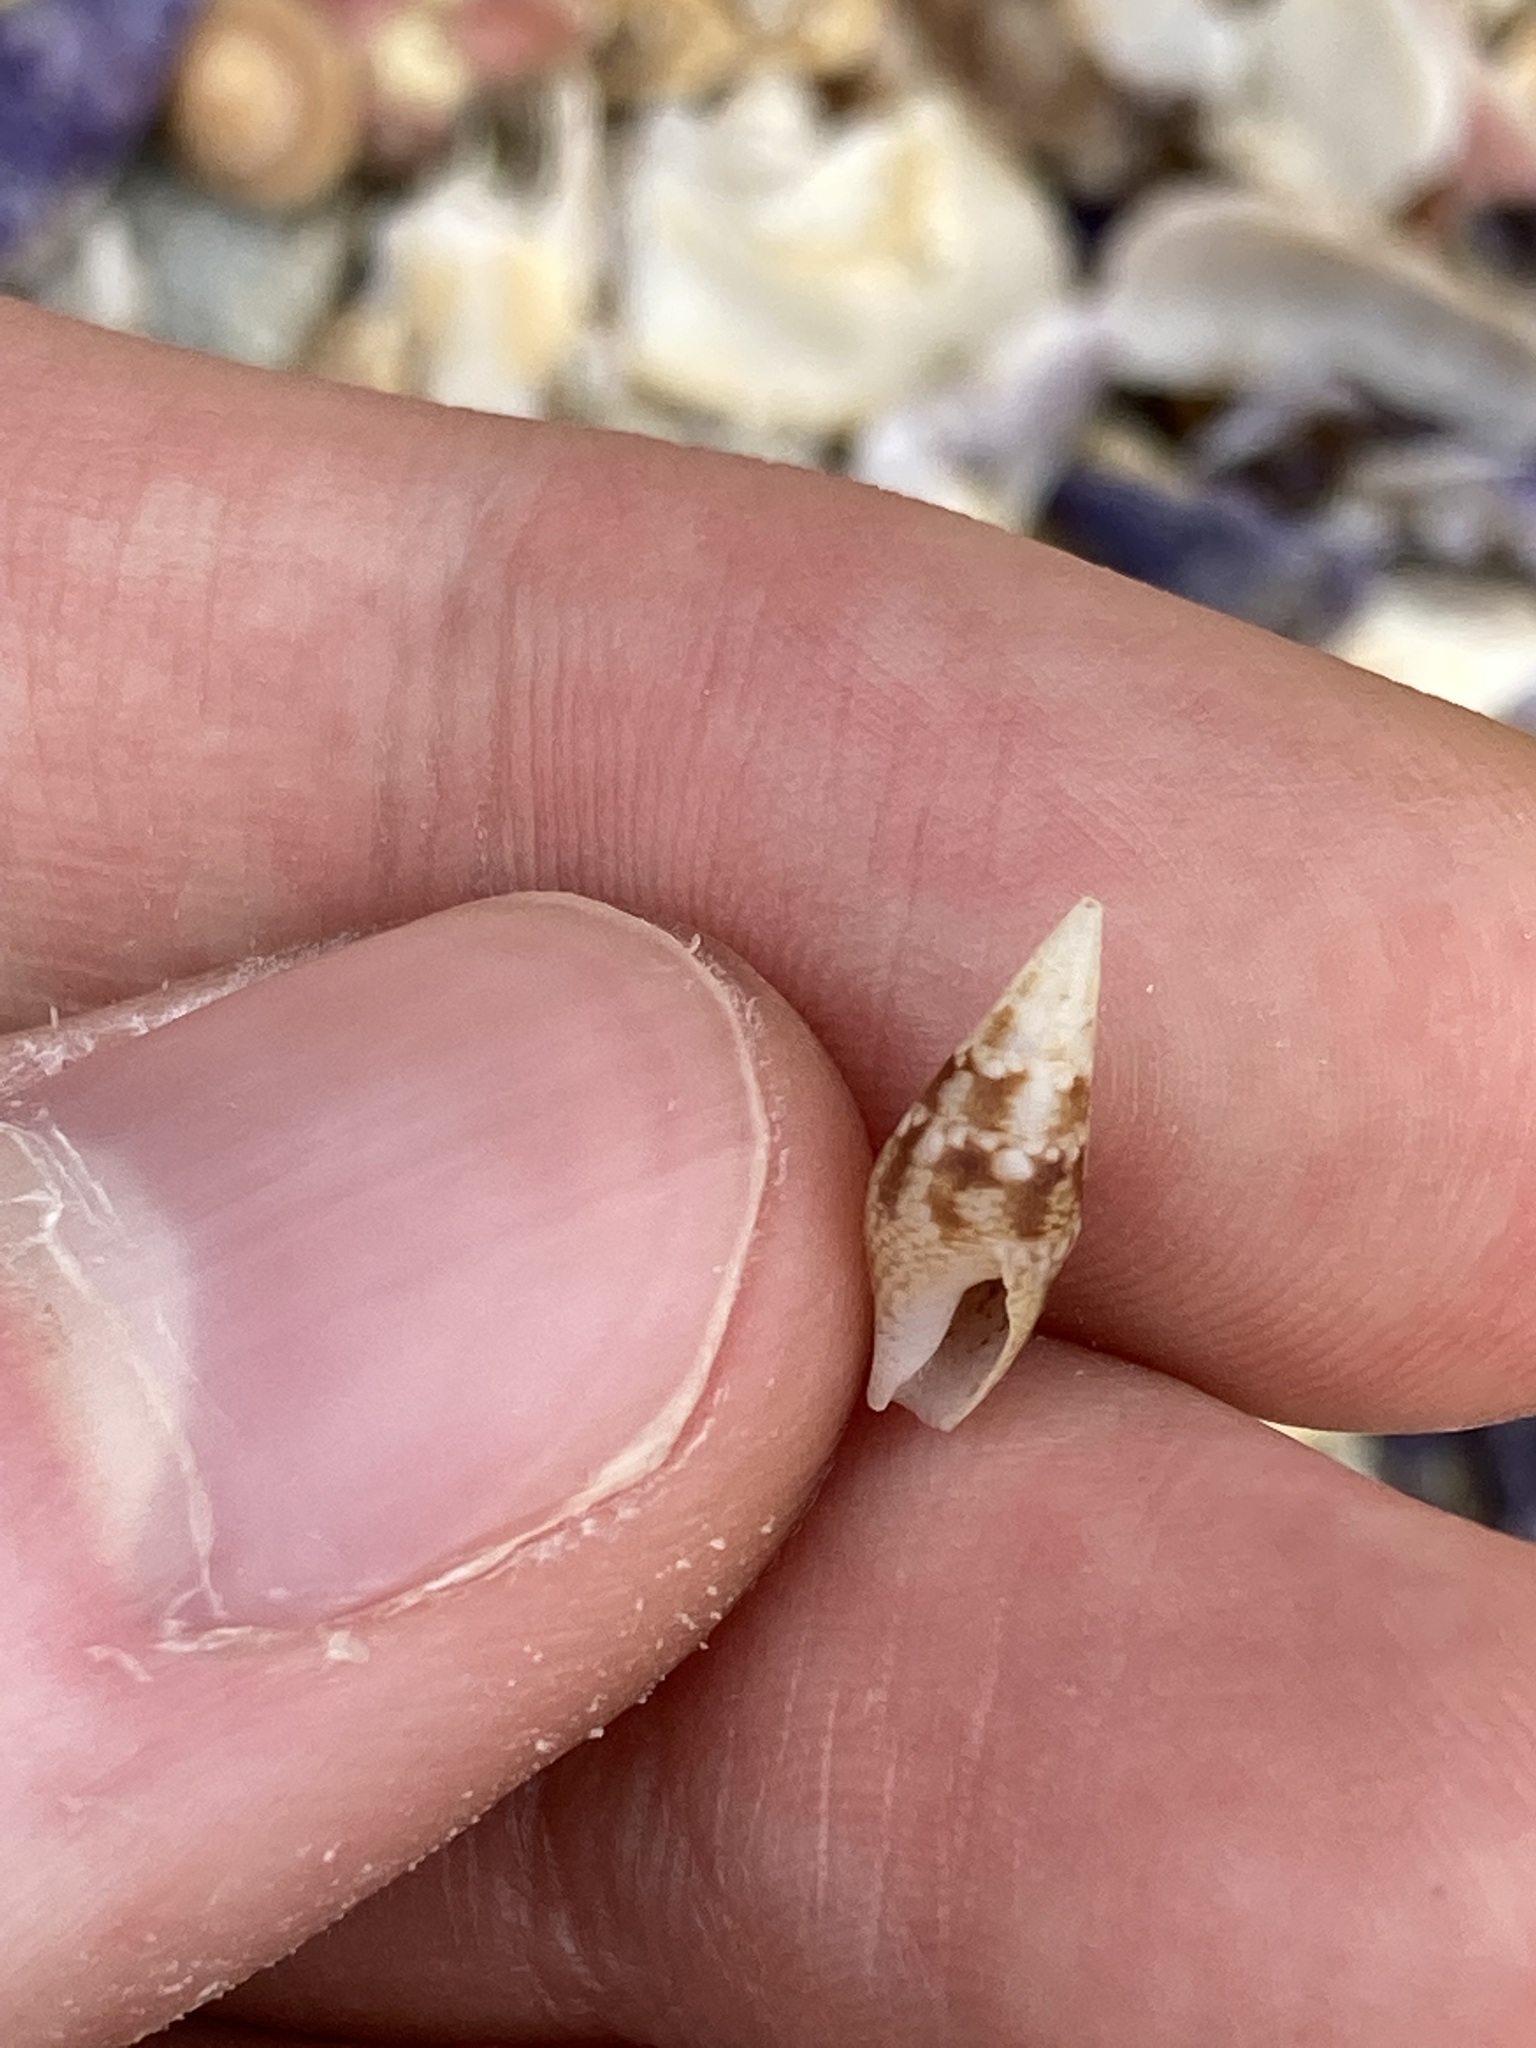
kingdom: Animalia
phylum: Mollusca
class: Gastropoda
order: Neogastropoda
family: Columbellidae
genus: Mitrella
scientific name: Mitrella tayloriana
